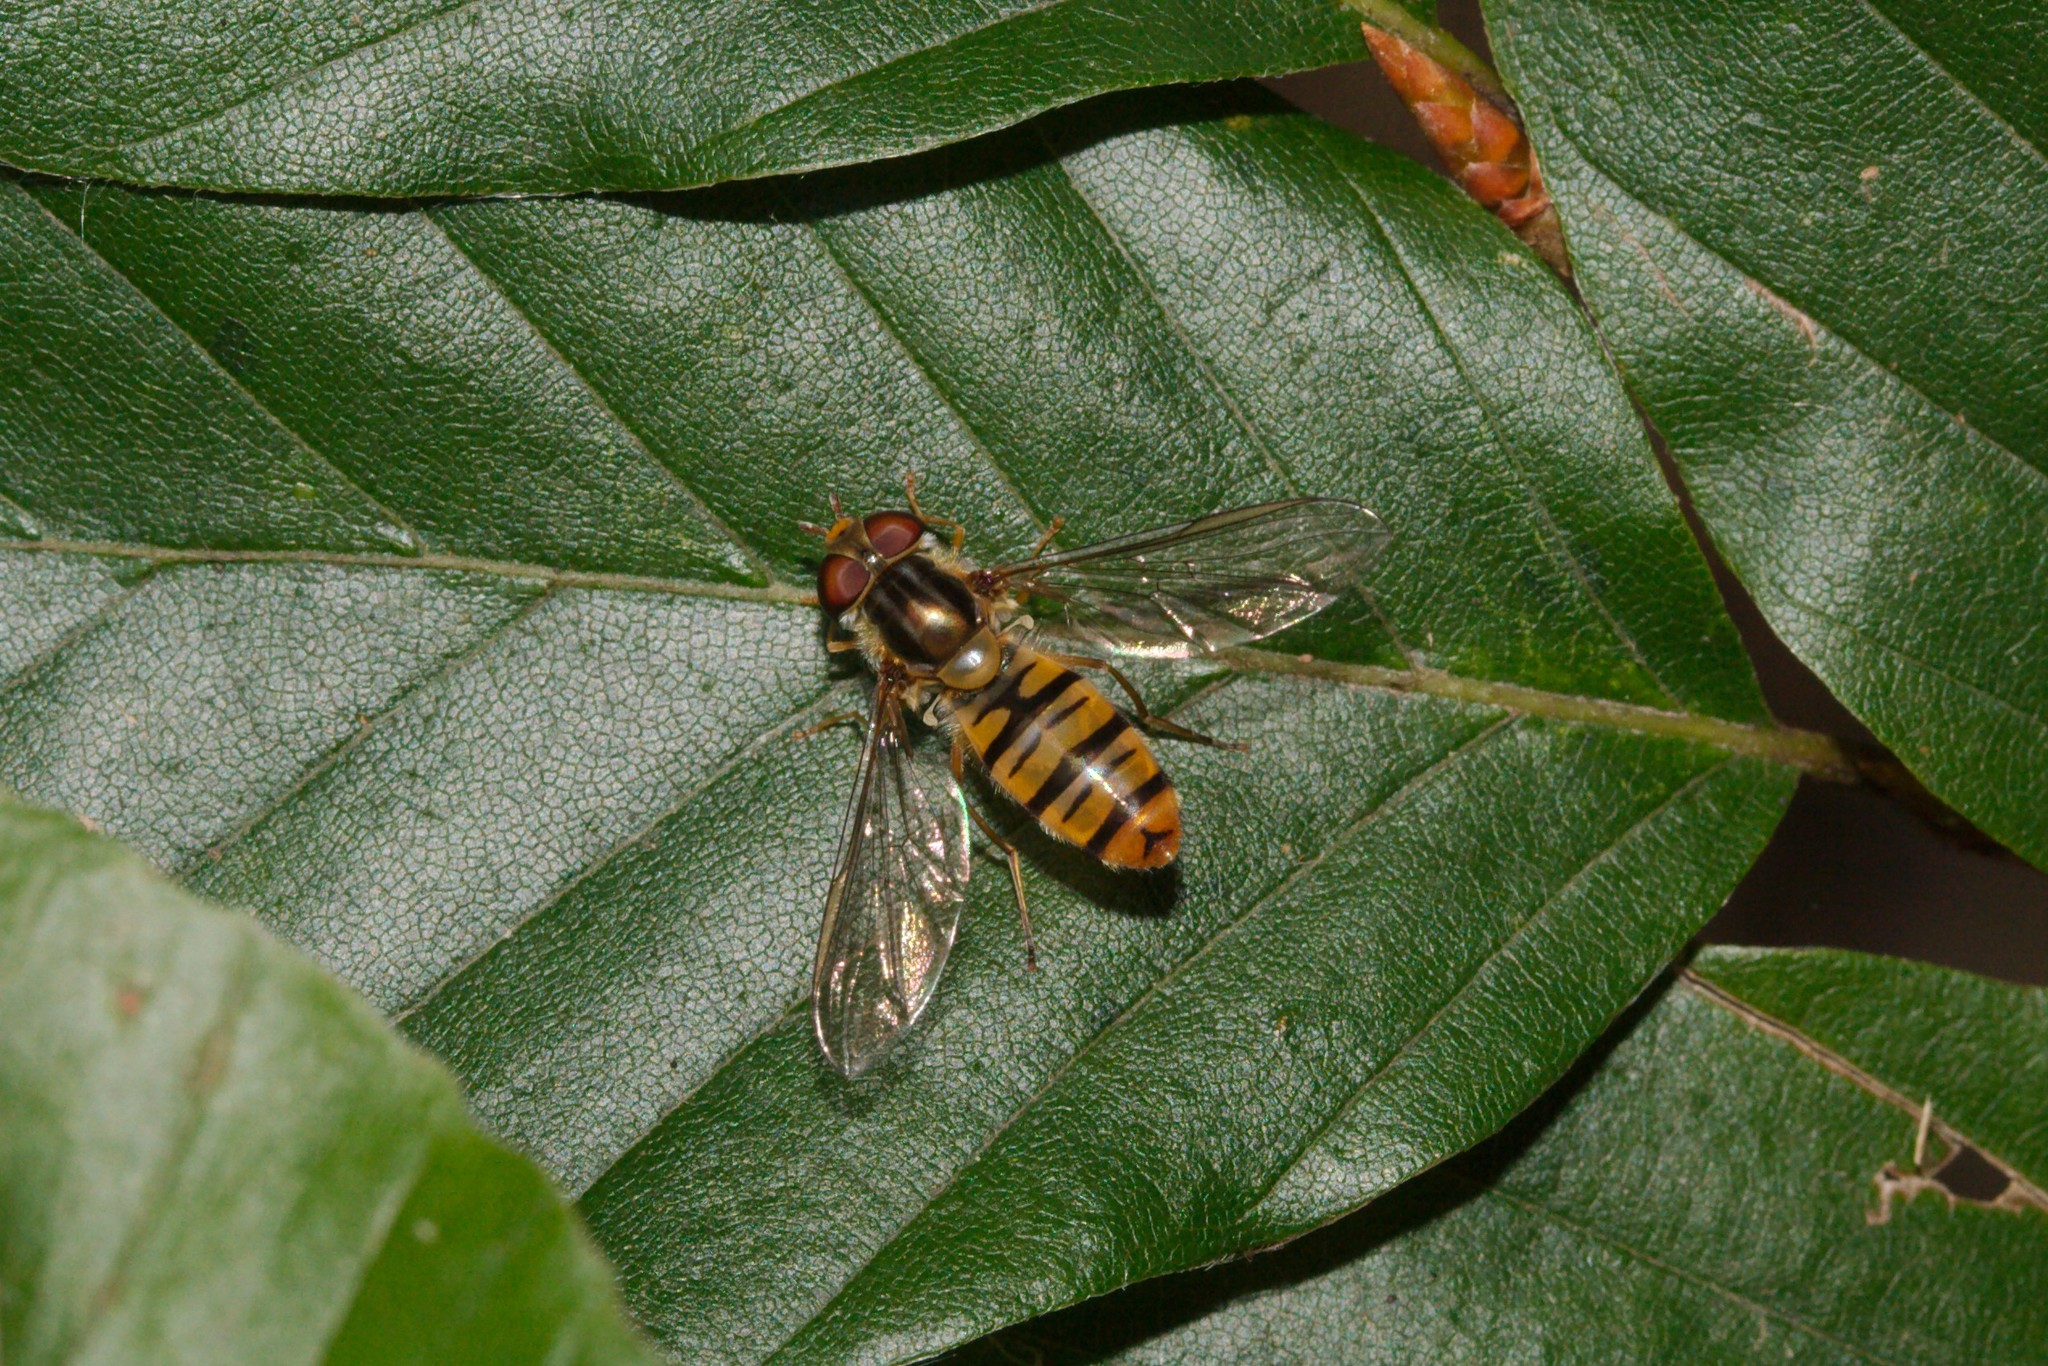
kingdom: Animalia
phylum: Arthropoda
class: Insecta
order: Diptera
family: Syrphidae
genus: Episyrphus
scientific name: Episyrphus balteatus
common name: Marmalade hoverfly
